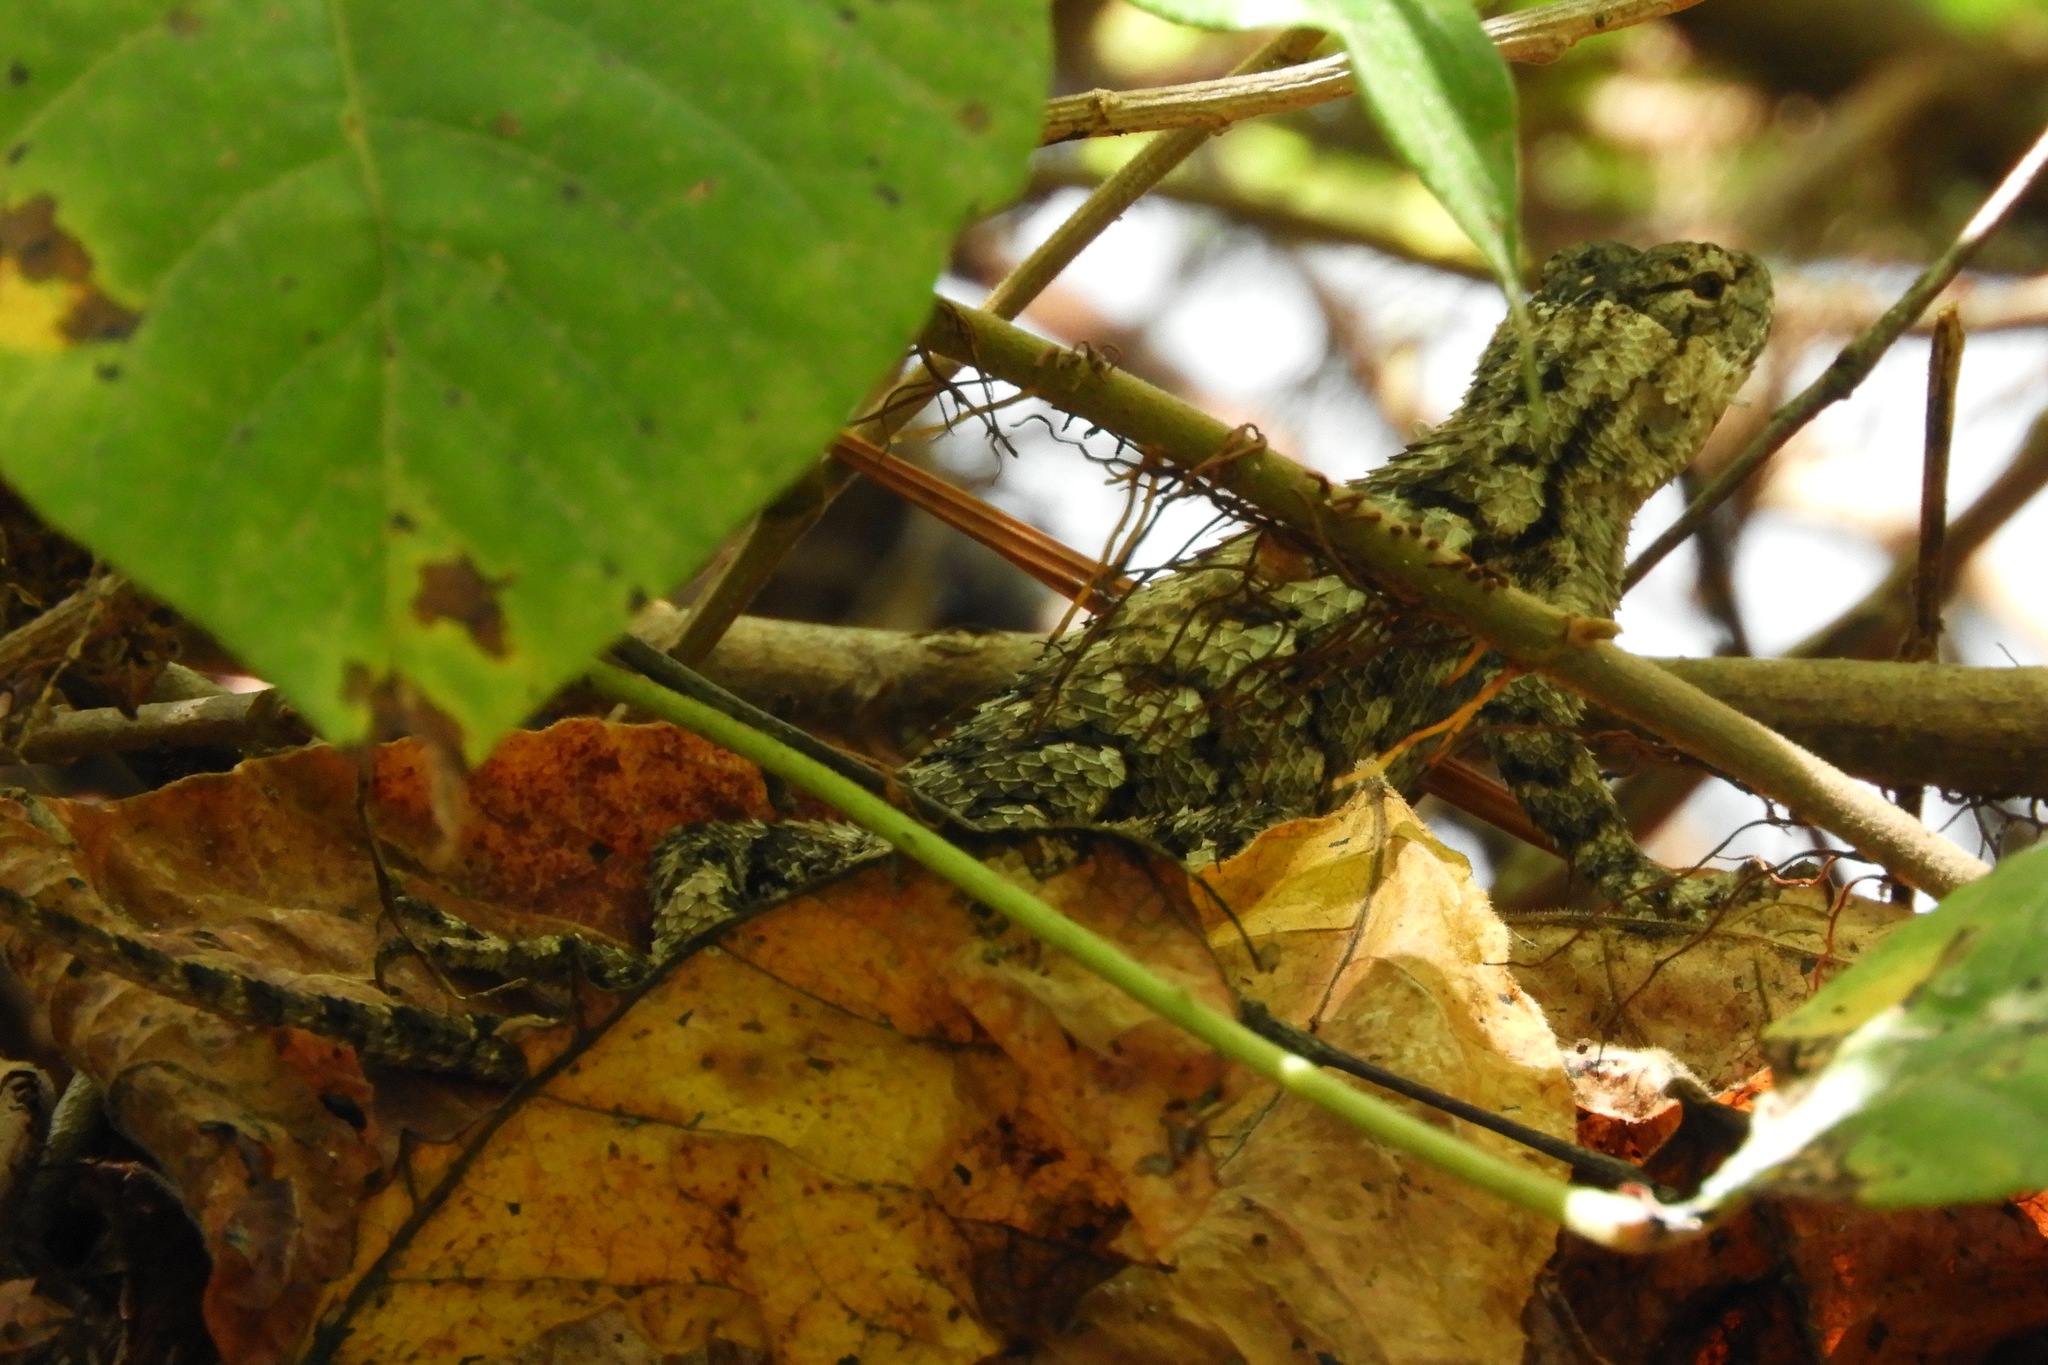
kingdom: Animalia
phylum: Chordata
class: Squamata
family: Phrynosomatidae
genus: Sceloporus
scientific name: Sceloporus undulatus
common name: Eastern fence lizard
